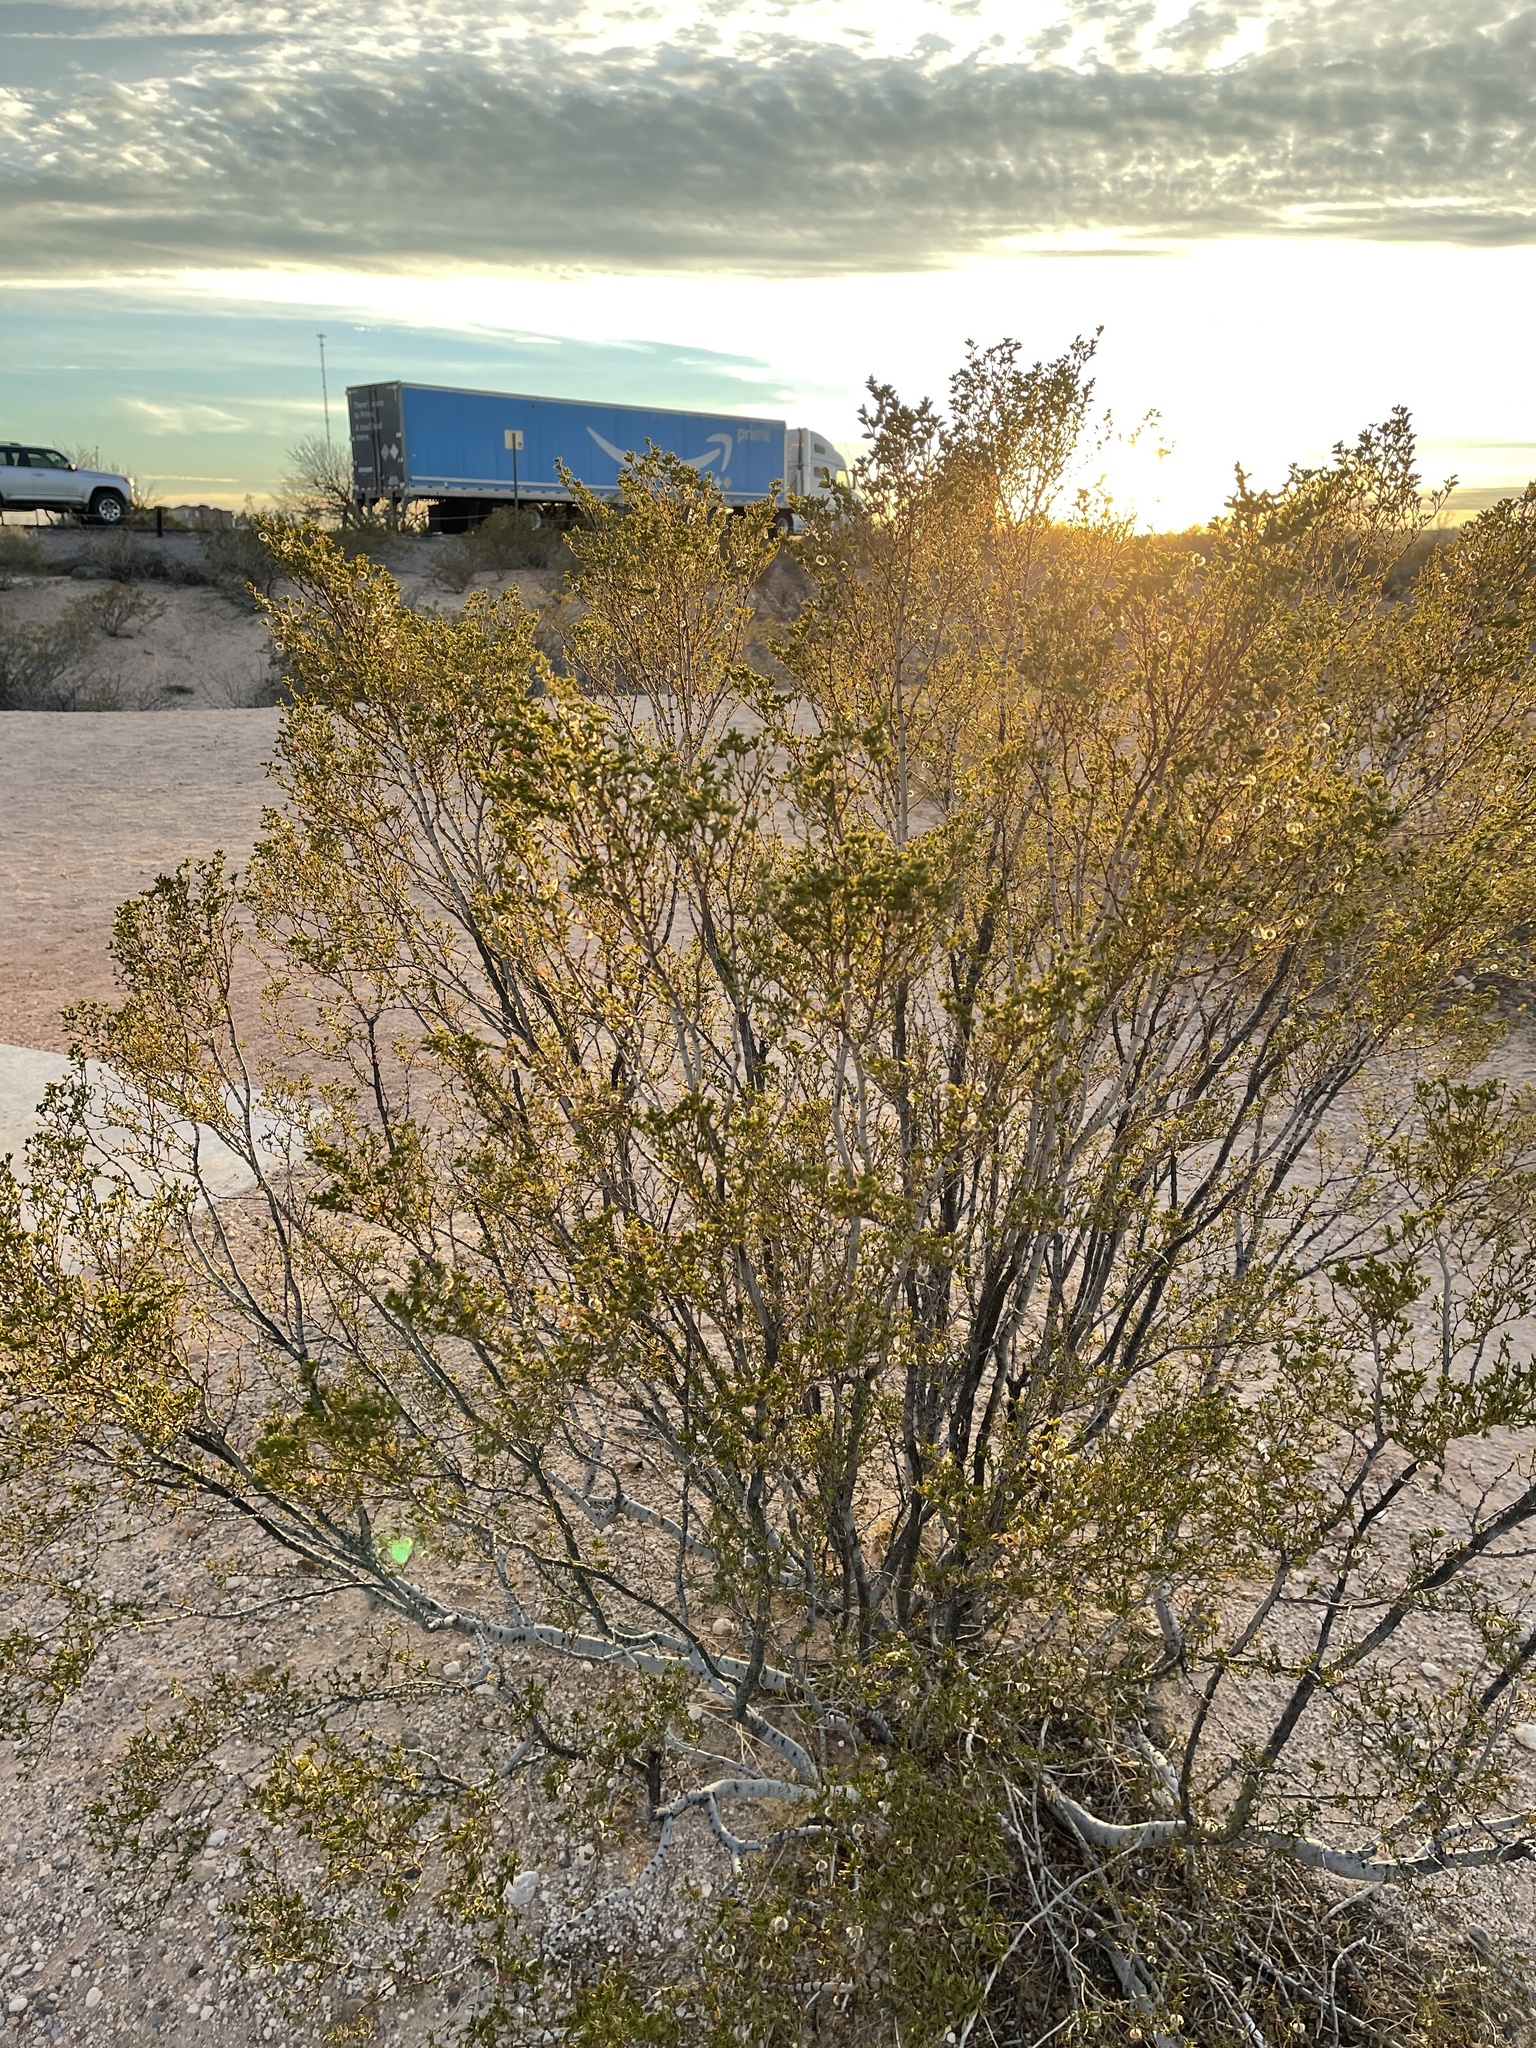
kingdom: Plantae
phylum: Tracheophyta
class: Magnoliopsida
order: Zygophyllales
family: Zygophyllaceae
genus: Larrea
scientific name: Larrea tridentata
